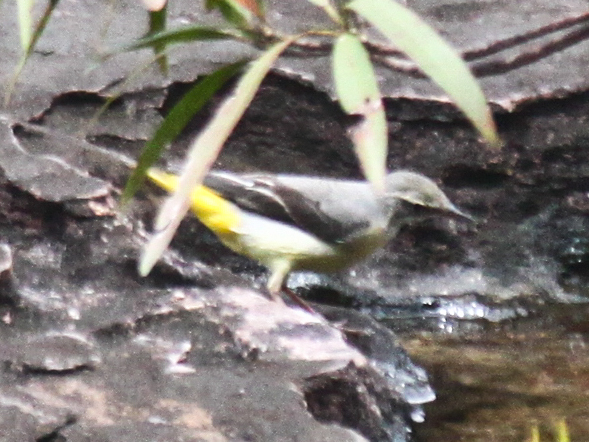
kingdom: Animalia
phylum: Chordata
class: Aves
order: Passeriformes
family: Motacillidae
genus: Motacilla
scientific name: Motacilla cinerea
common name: Grey wagtail
